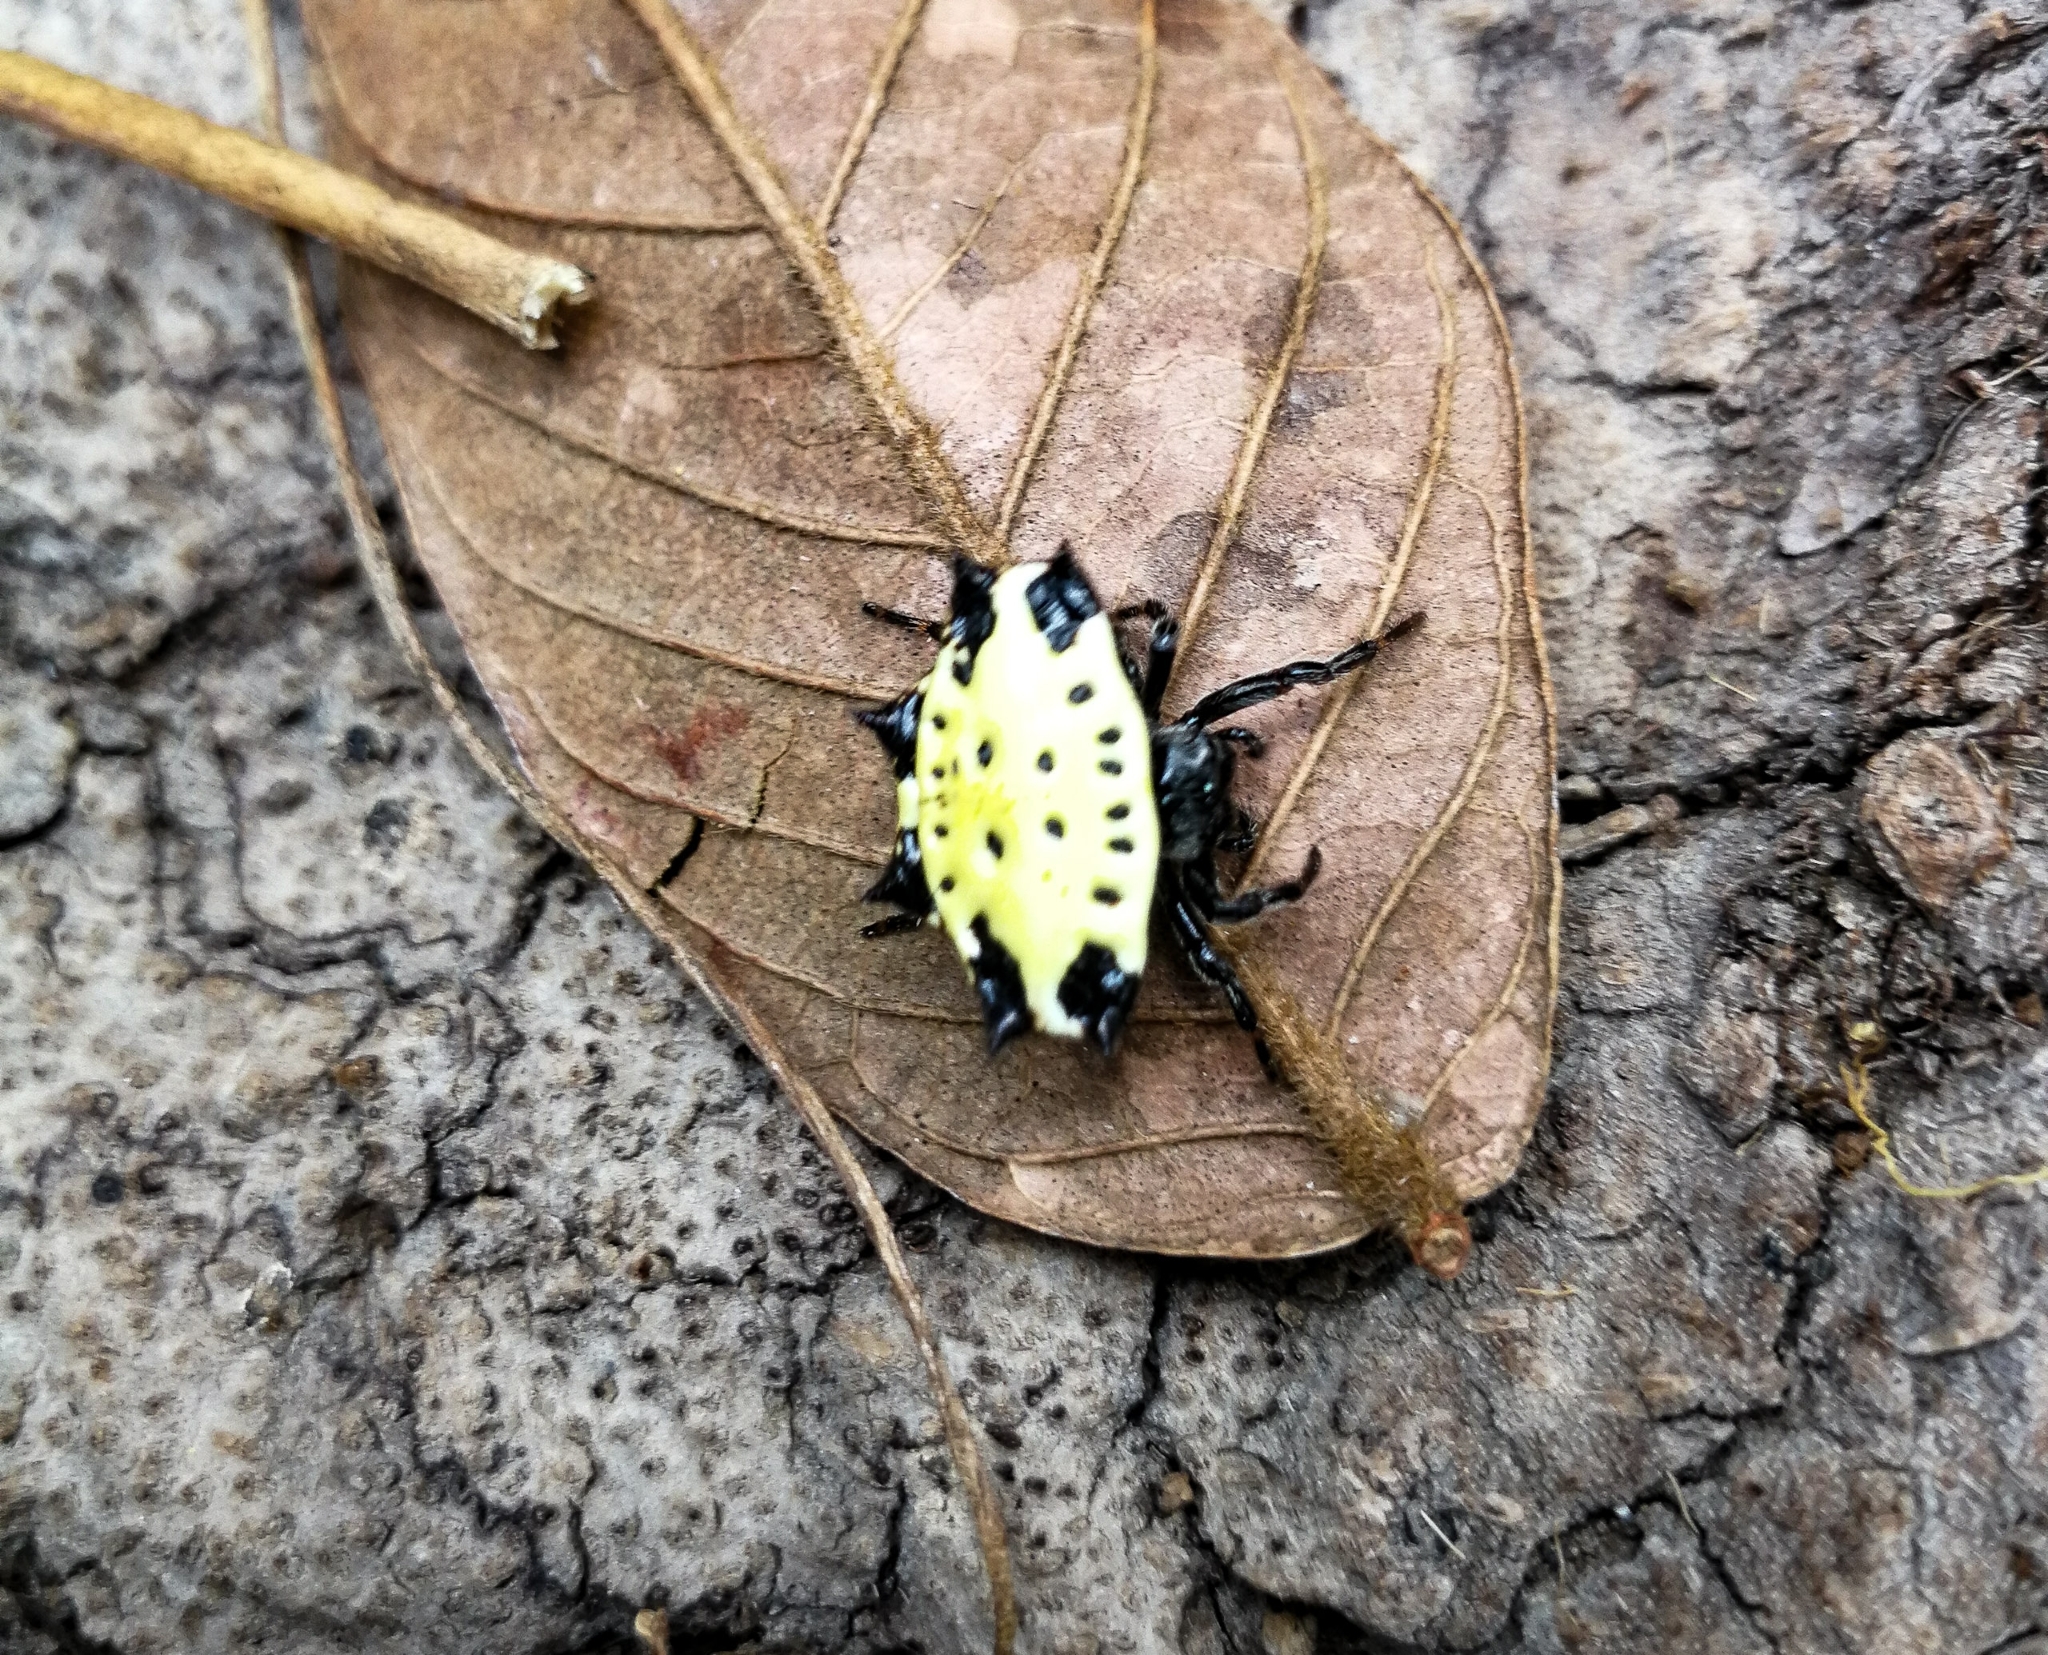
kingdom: Animalia
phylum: Arthropoda
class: Arachnida
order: Araneae
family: Araneidae
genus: Gasteracantha
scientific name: Gasteracantha cancriformis
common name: Orb weavers
